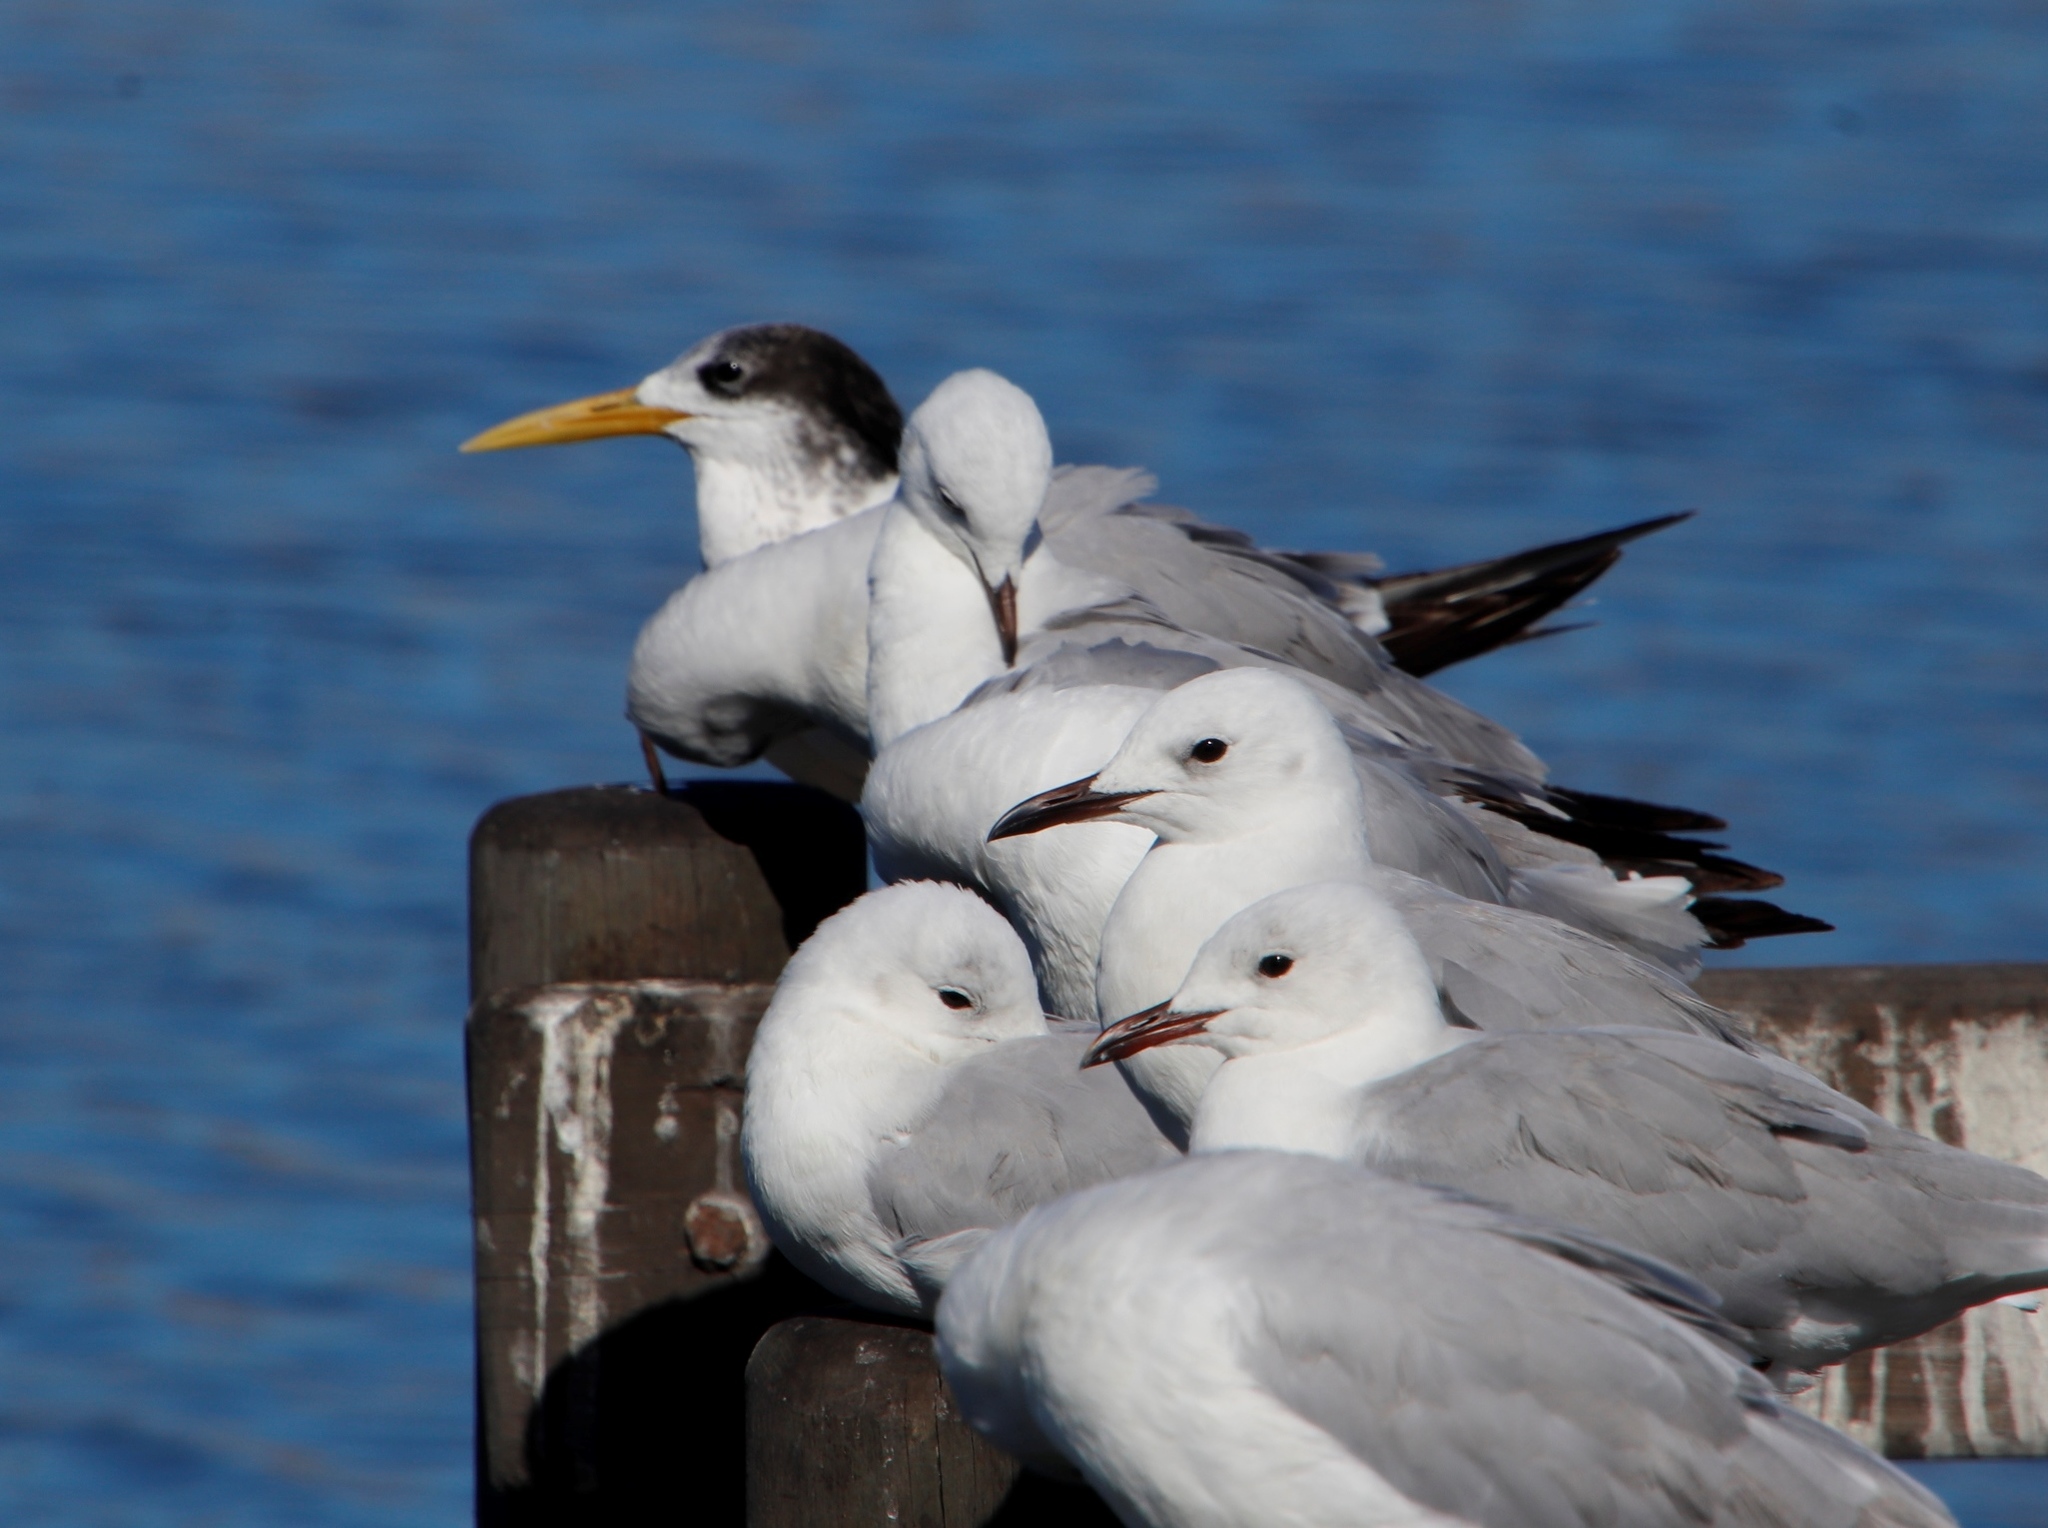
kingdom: Animalia
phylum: Chordata
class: Aves
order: Charadriiformes
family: Laridae
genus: Thalasseus
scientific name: Thalasseus bergii
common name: Greater crested tern
